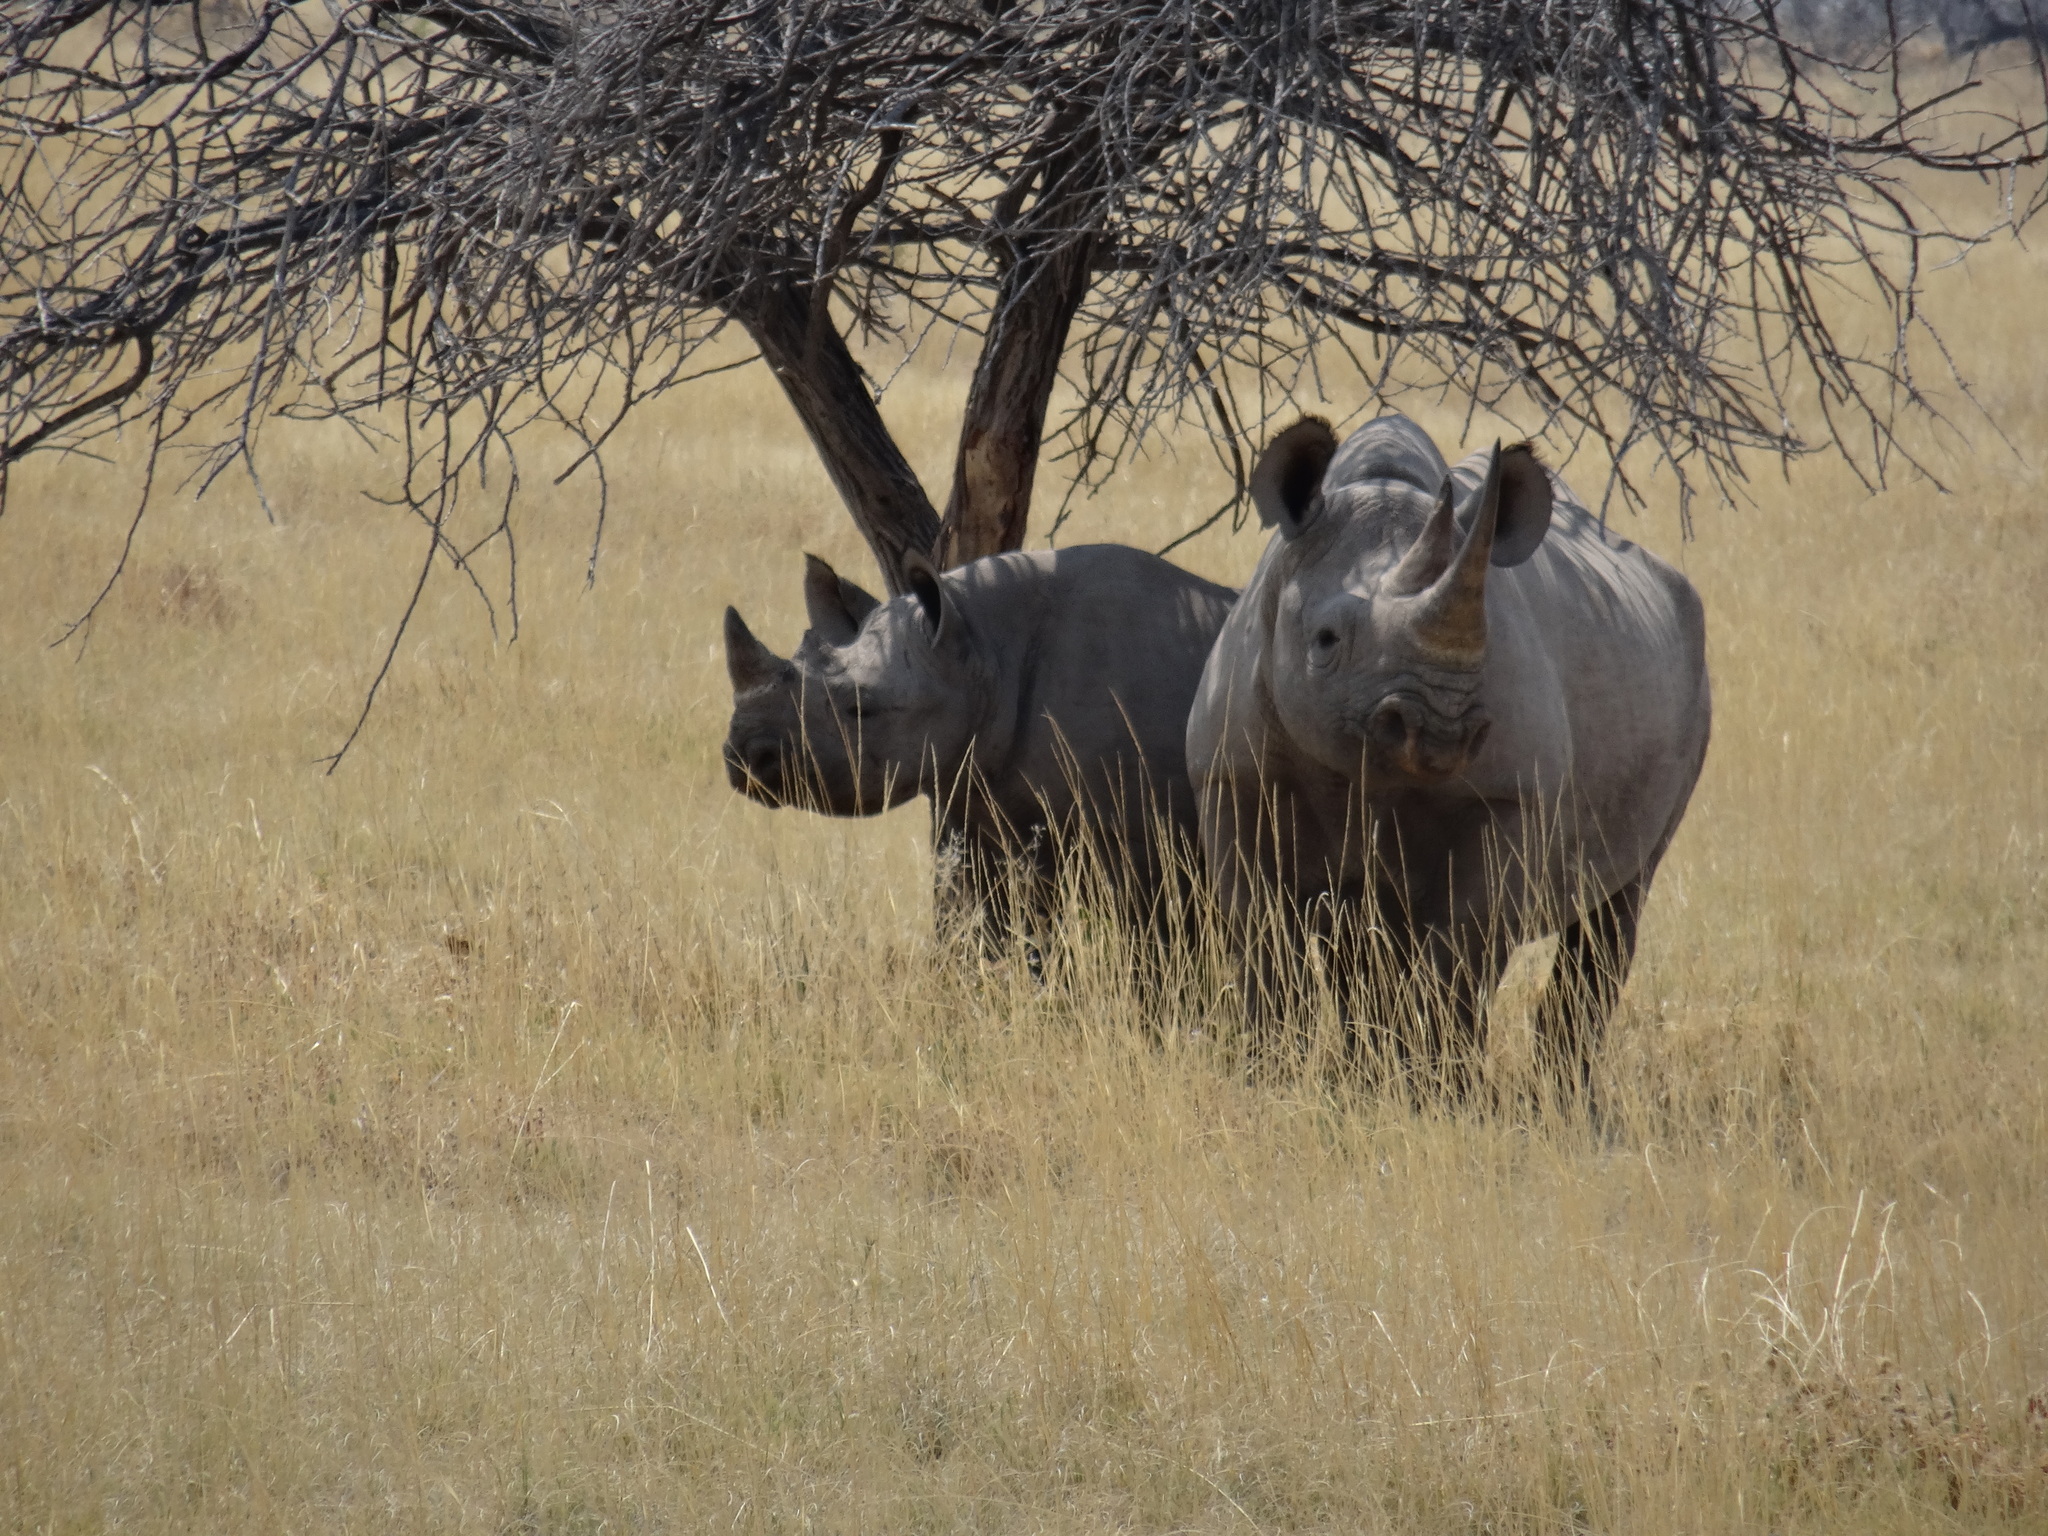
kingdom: Animalia
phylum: Chordata
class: Mammalia
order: Perissodactyla
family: Rhinocerotidae
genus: Diceros
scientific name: Diceros bicornis
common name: Black rhinoceros
